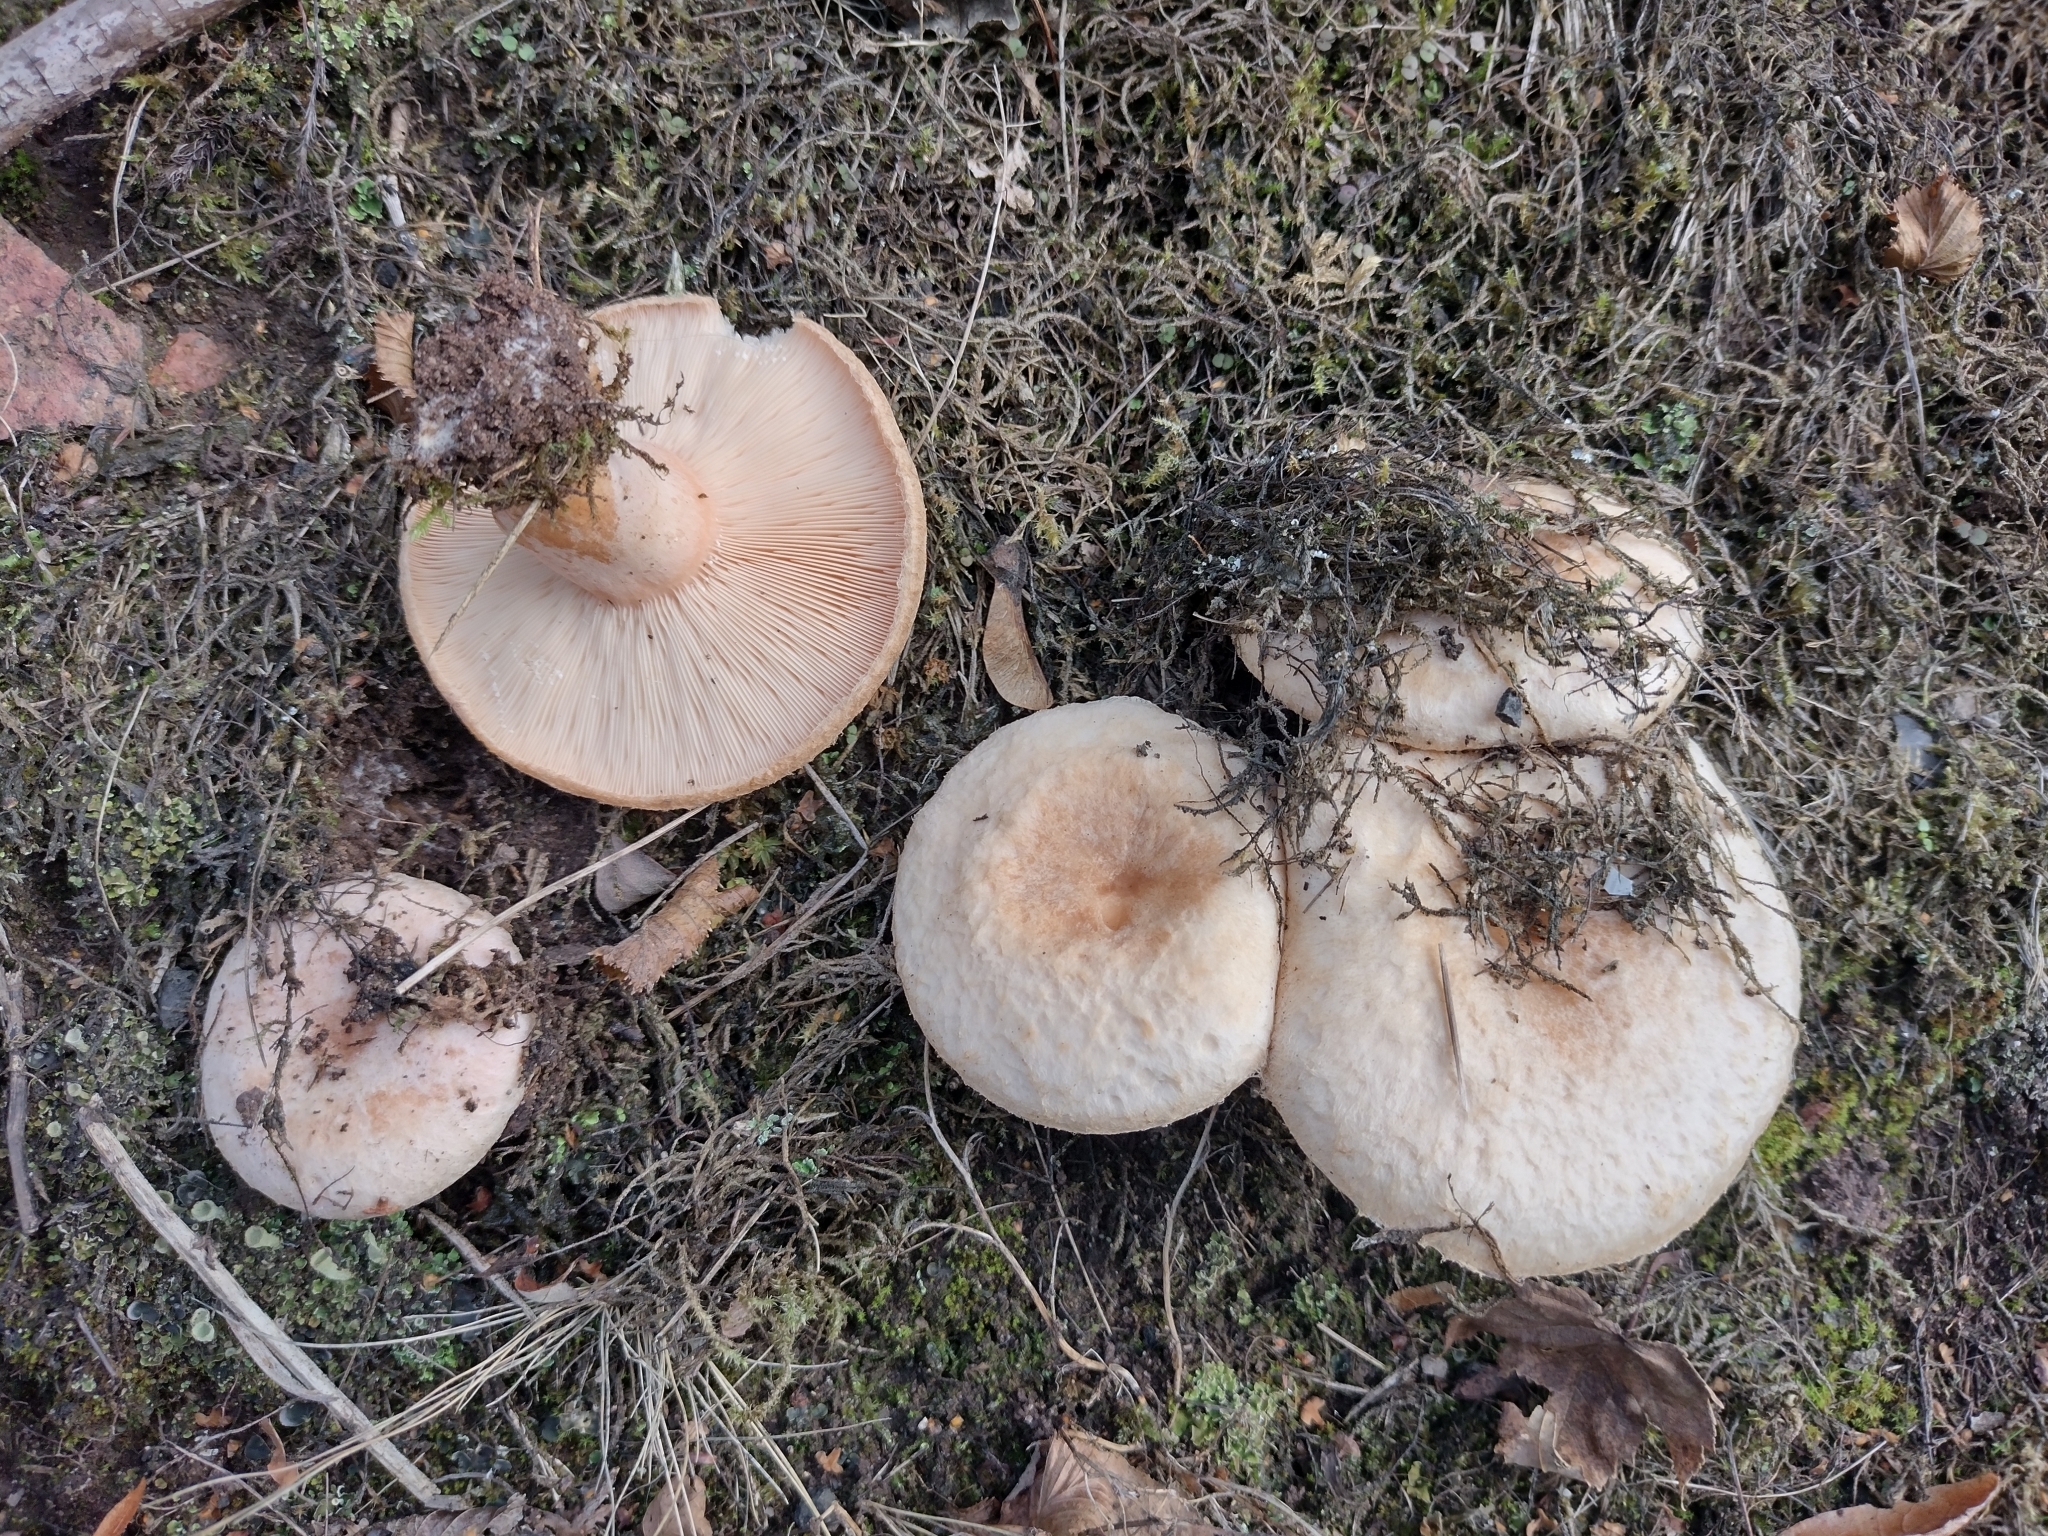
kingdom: Fungi
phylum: Basidiomycota
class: Agaricomycetes
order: Russulales
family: Russulaceae
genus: Lactarius
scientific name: Lactarius pubescens
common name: Bearded milkcap
